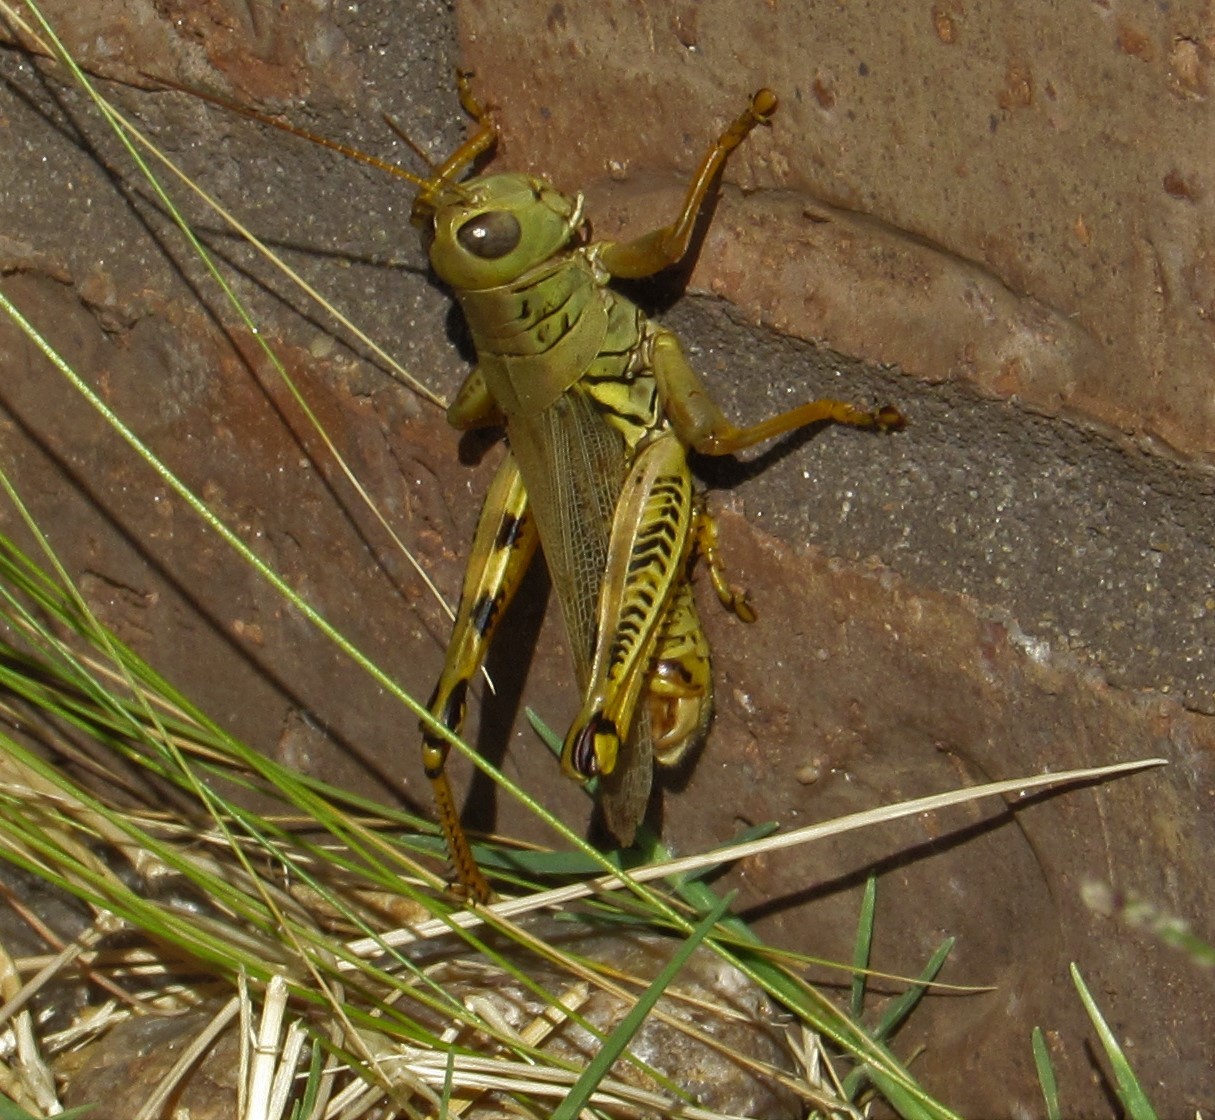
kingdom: Animalia
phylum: Arthropoda
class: Insecta
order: Orthoptera
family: Acrididae
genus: Melanoplus
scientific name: Melanoplus differentialis
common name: Differential grasshopper
